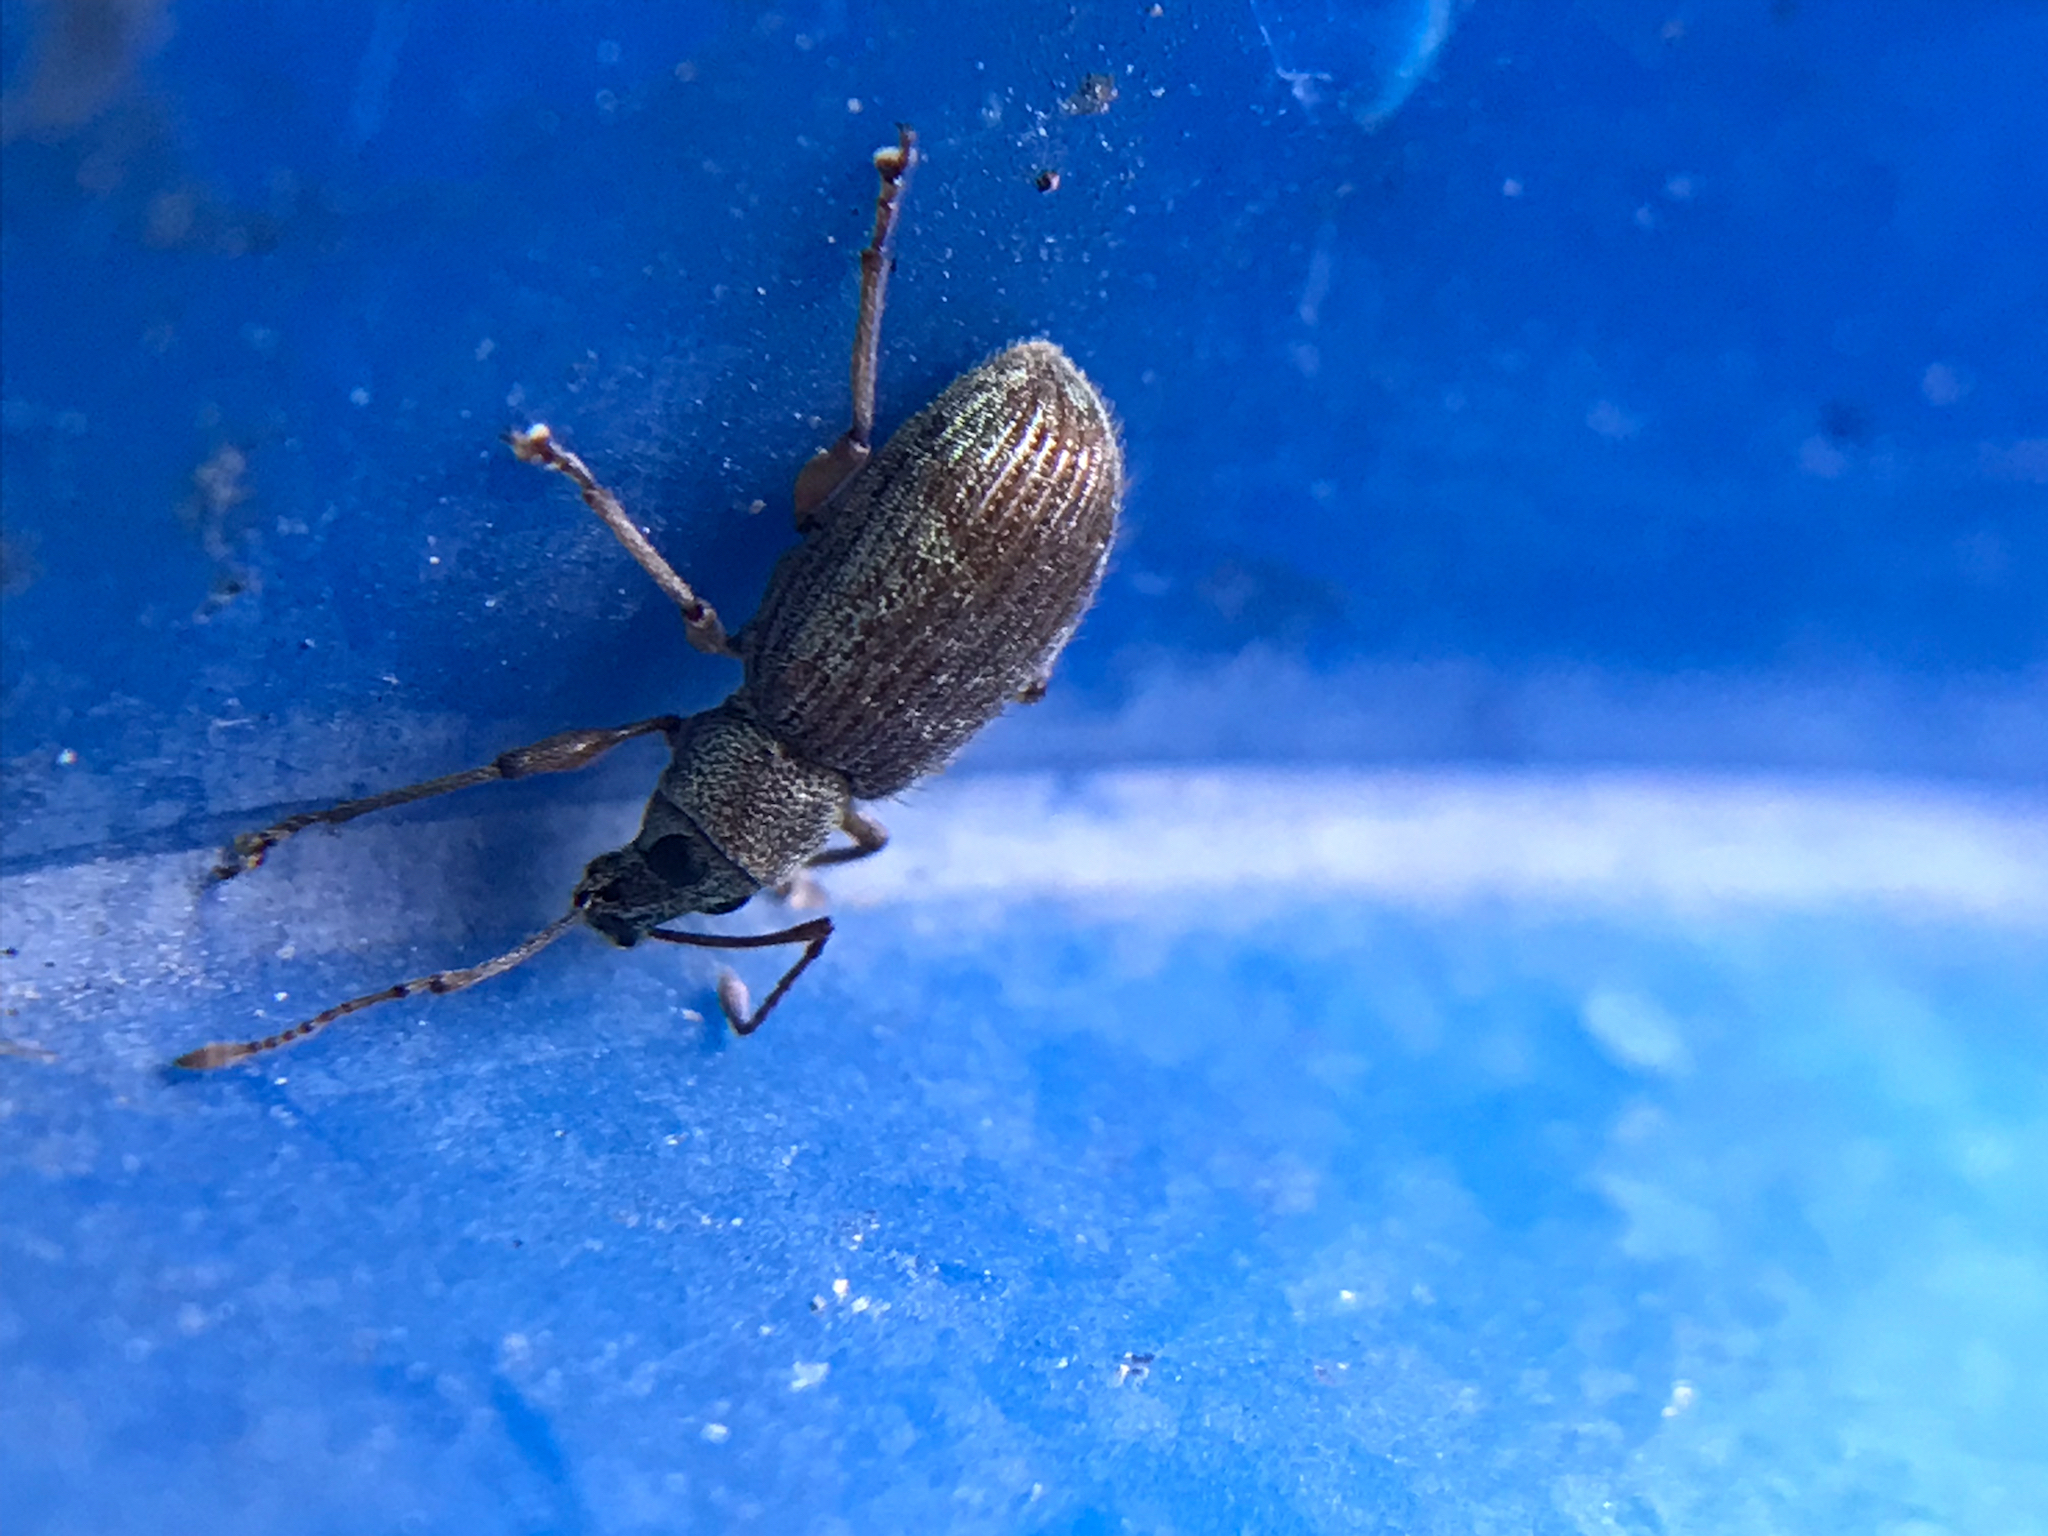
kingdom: Animalia
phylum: Arthropoda
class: Insecta
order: Coleoptera
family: Curculionidae
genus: Cyrtepistomus
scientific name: Cyrtepistomus castaneus
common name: Weevil
